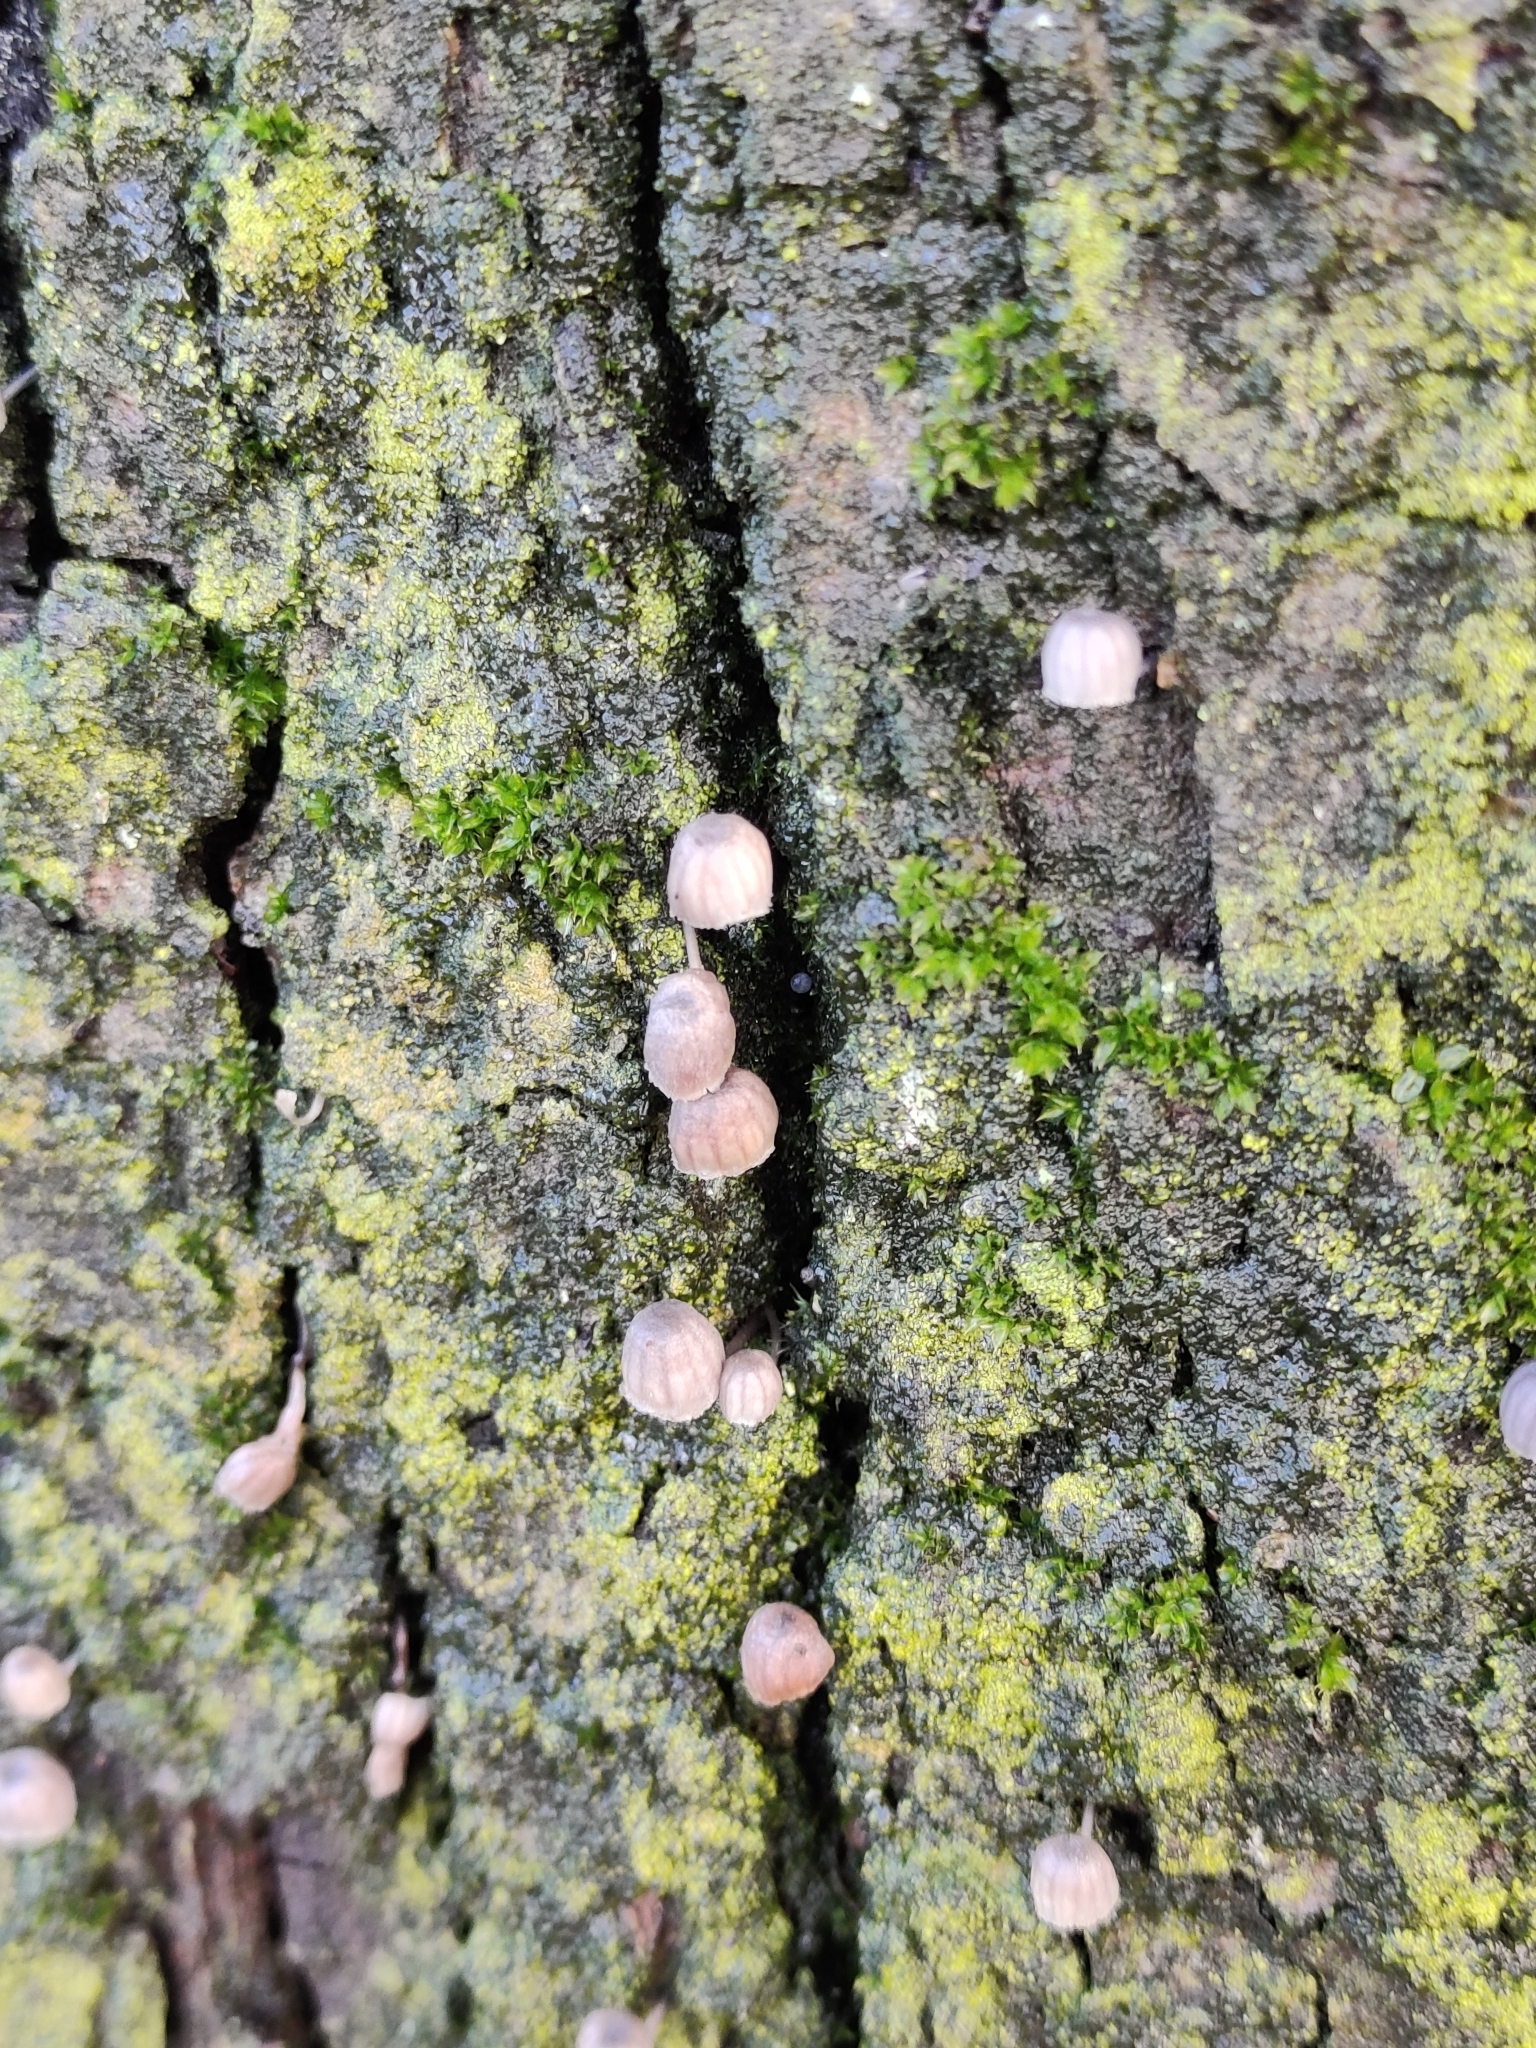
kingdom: Fungi
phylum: Basidiomycota
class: Agaricomycetes
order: Agaricales
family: Mycenaceae
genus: Mycena
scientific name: Mycena meliigena
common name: Mauve bonnet
